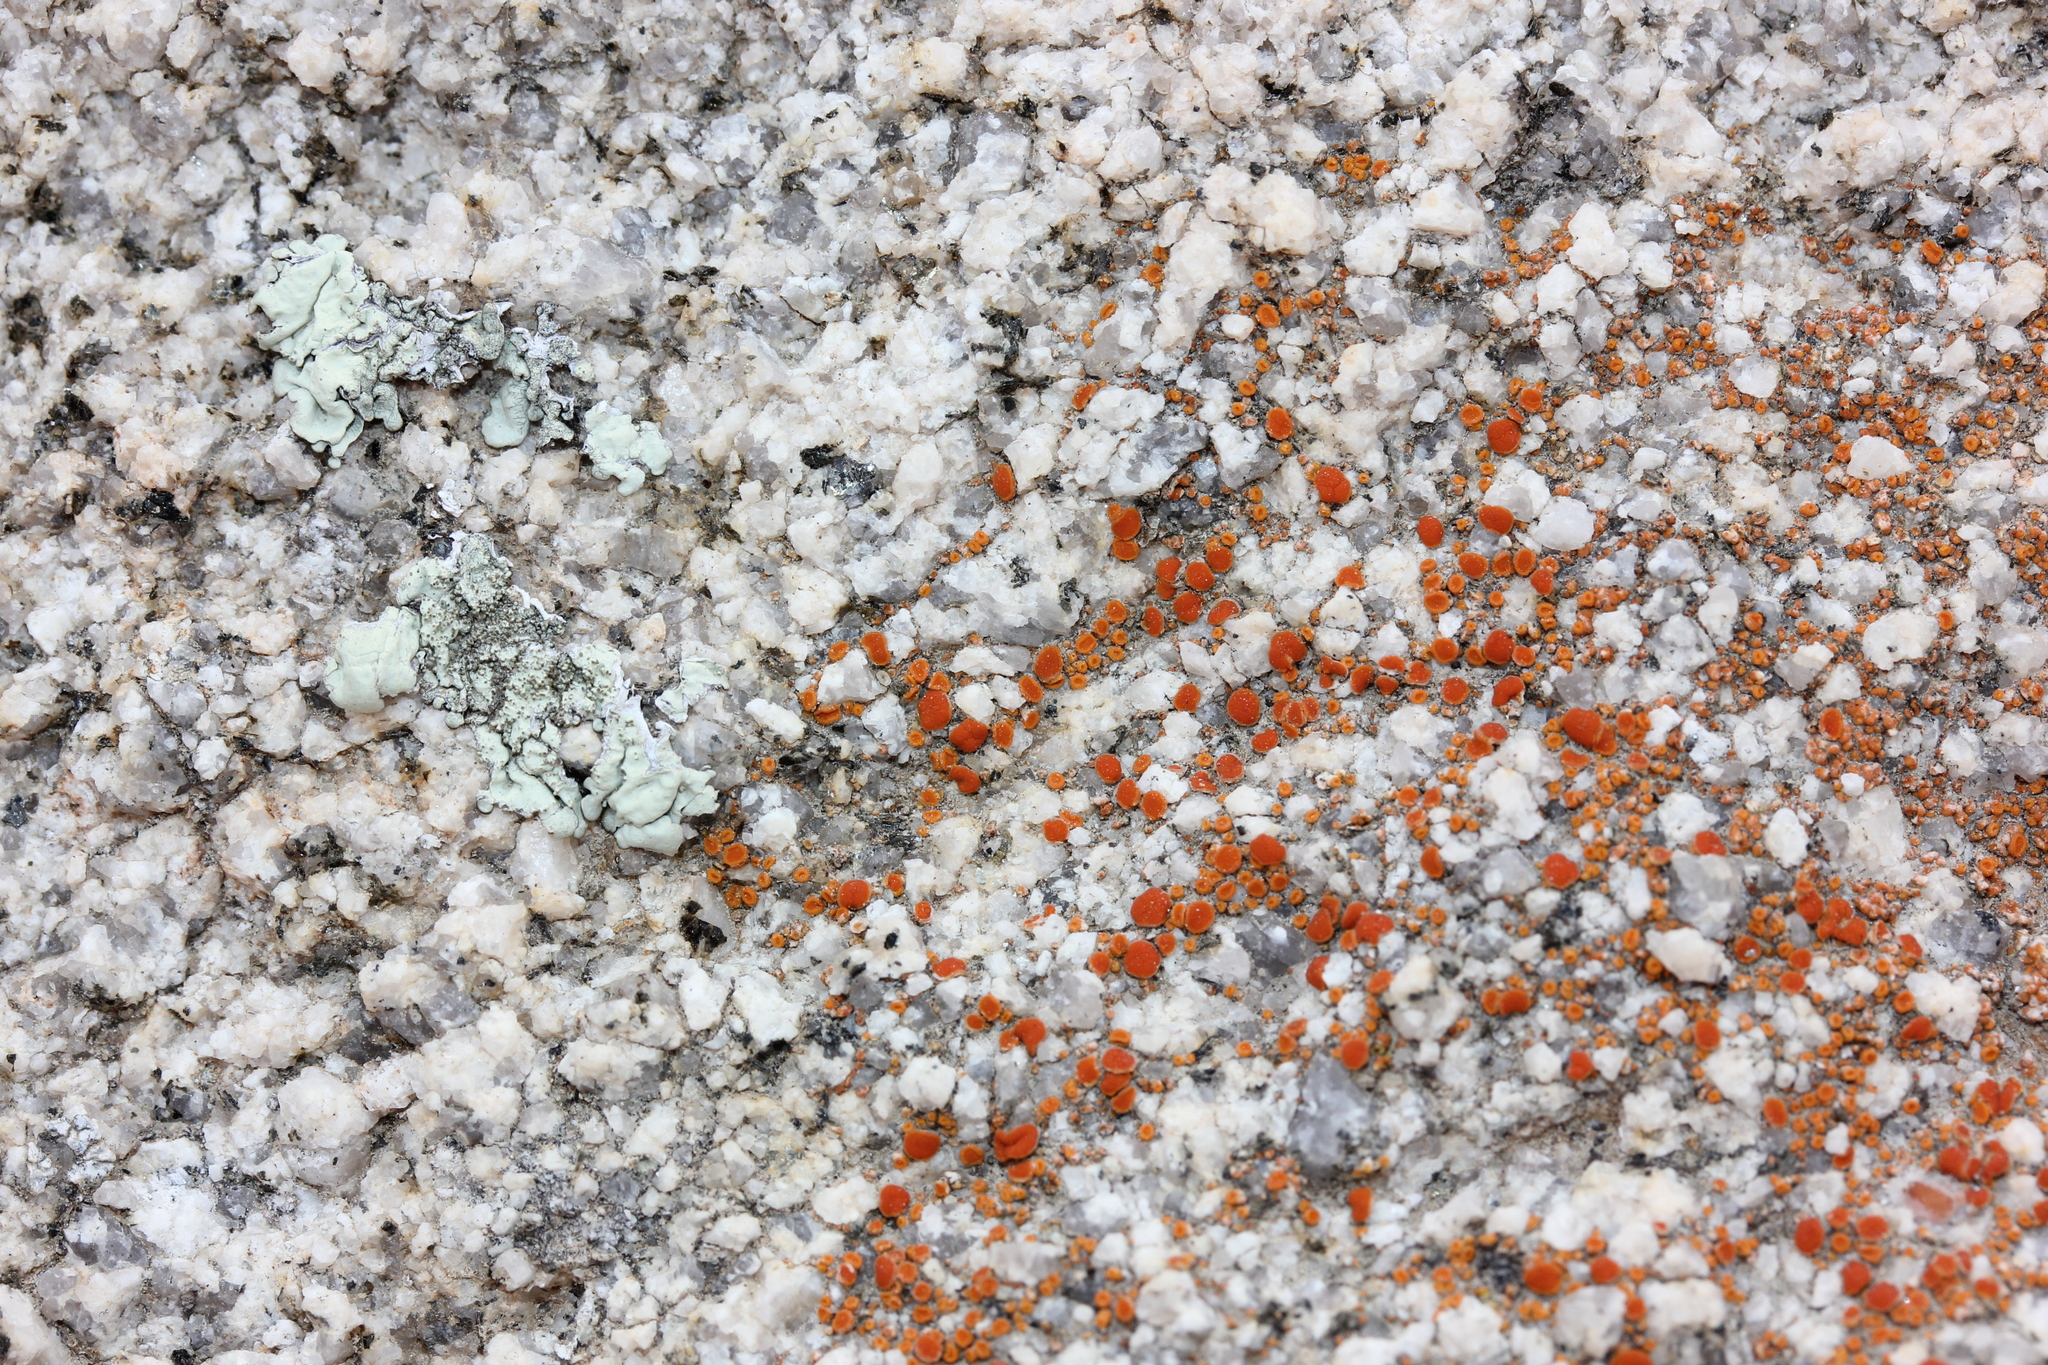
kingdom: Fungi
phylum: Ascomycota
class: Lecanoromycetes
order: Teloschistales
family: Teloschistaceae
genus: Rufoplaca
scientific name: Rufoplaca arenaria
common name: Granite firedot lichen
